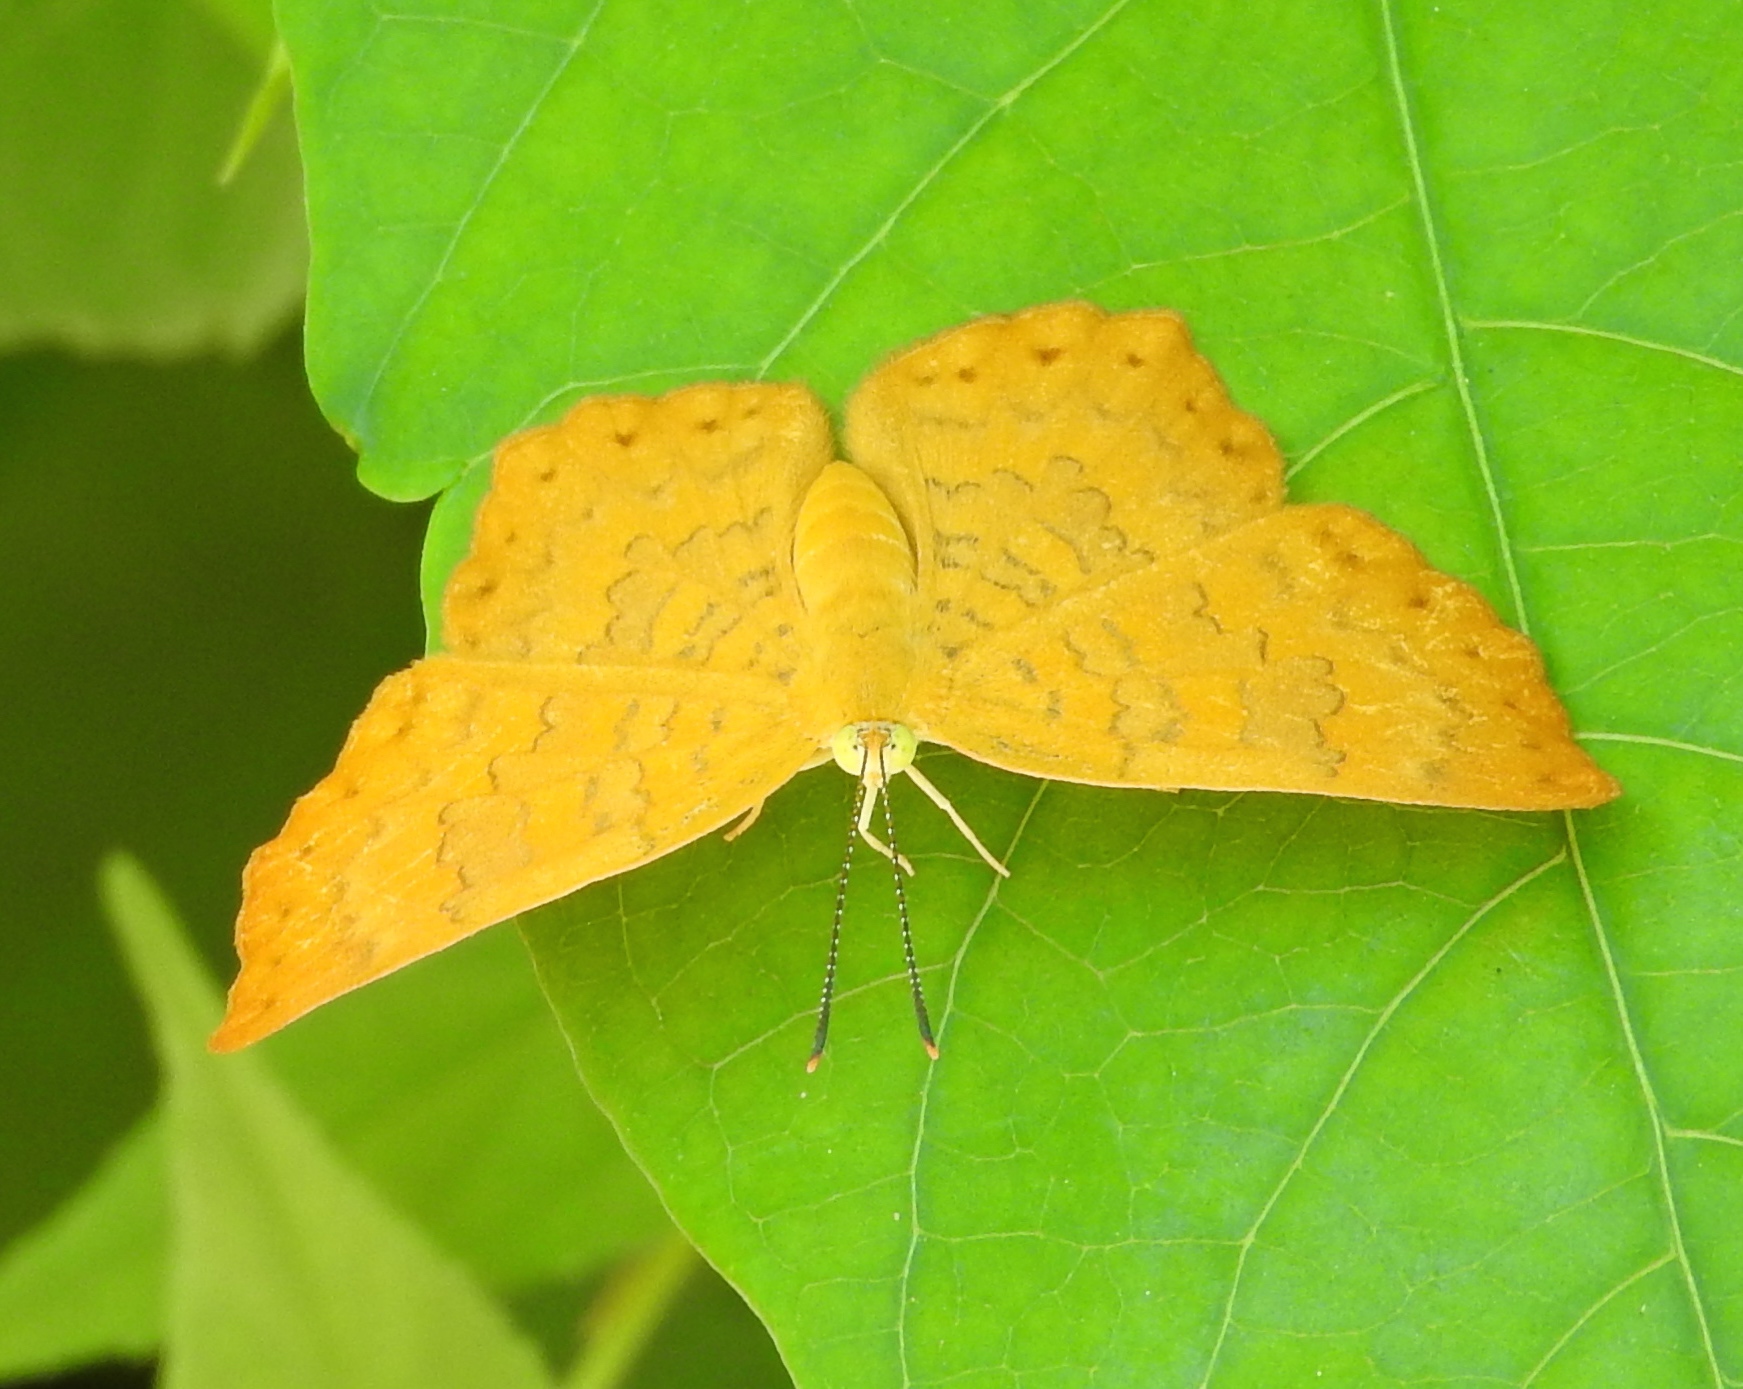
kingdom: Animalia
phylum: Arthropoda
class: Insecta
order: Lepidoptera
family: Lycaenidae
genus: Emesis
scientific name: Emesis vulpina
